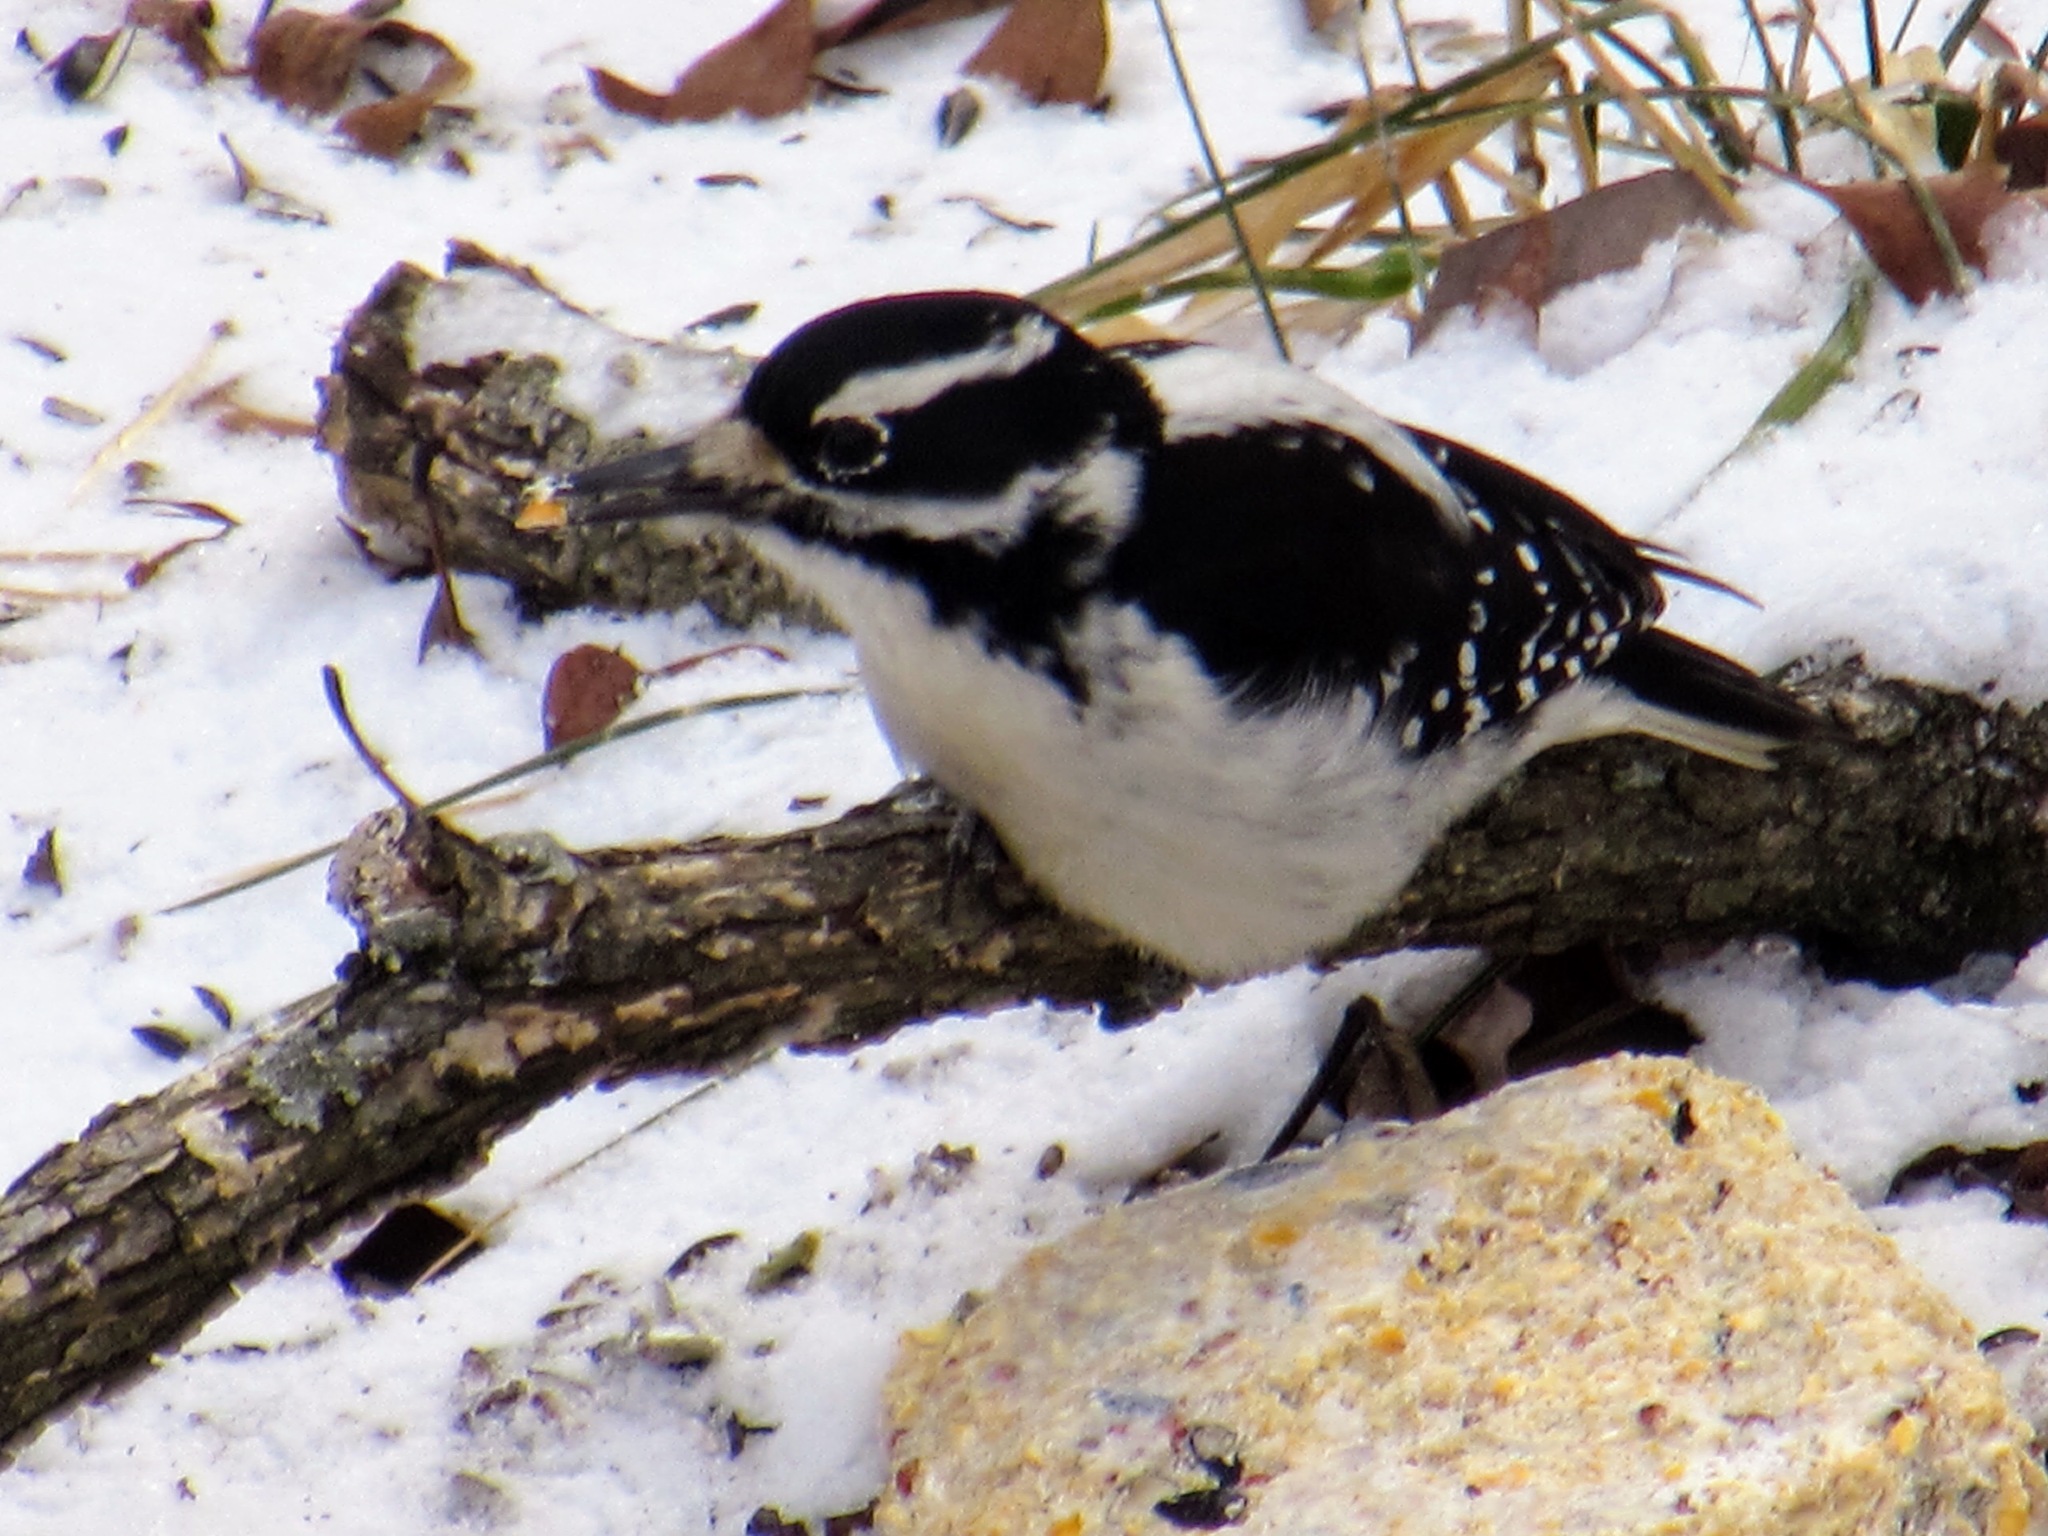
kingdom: Animalia
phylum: Chordata
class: Aves
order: Piciformes
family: Picidae
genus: Leuconotopicus
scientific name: Leuconotopicus villosus
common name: Hairy woodpecker
